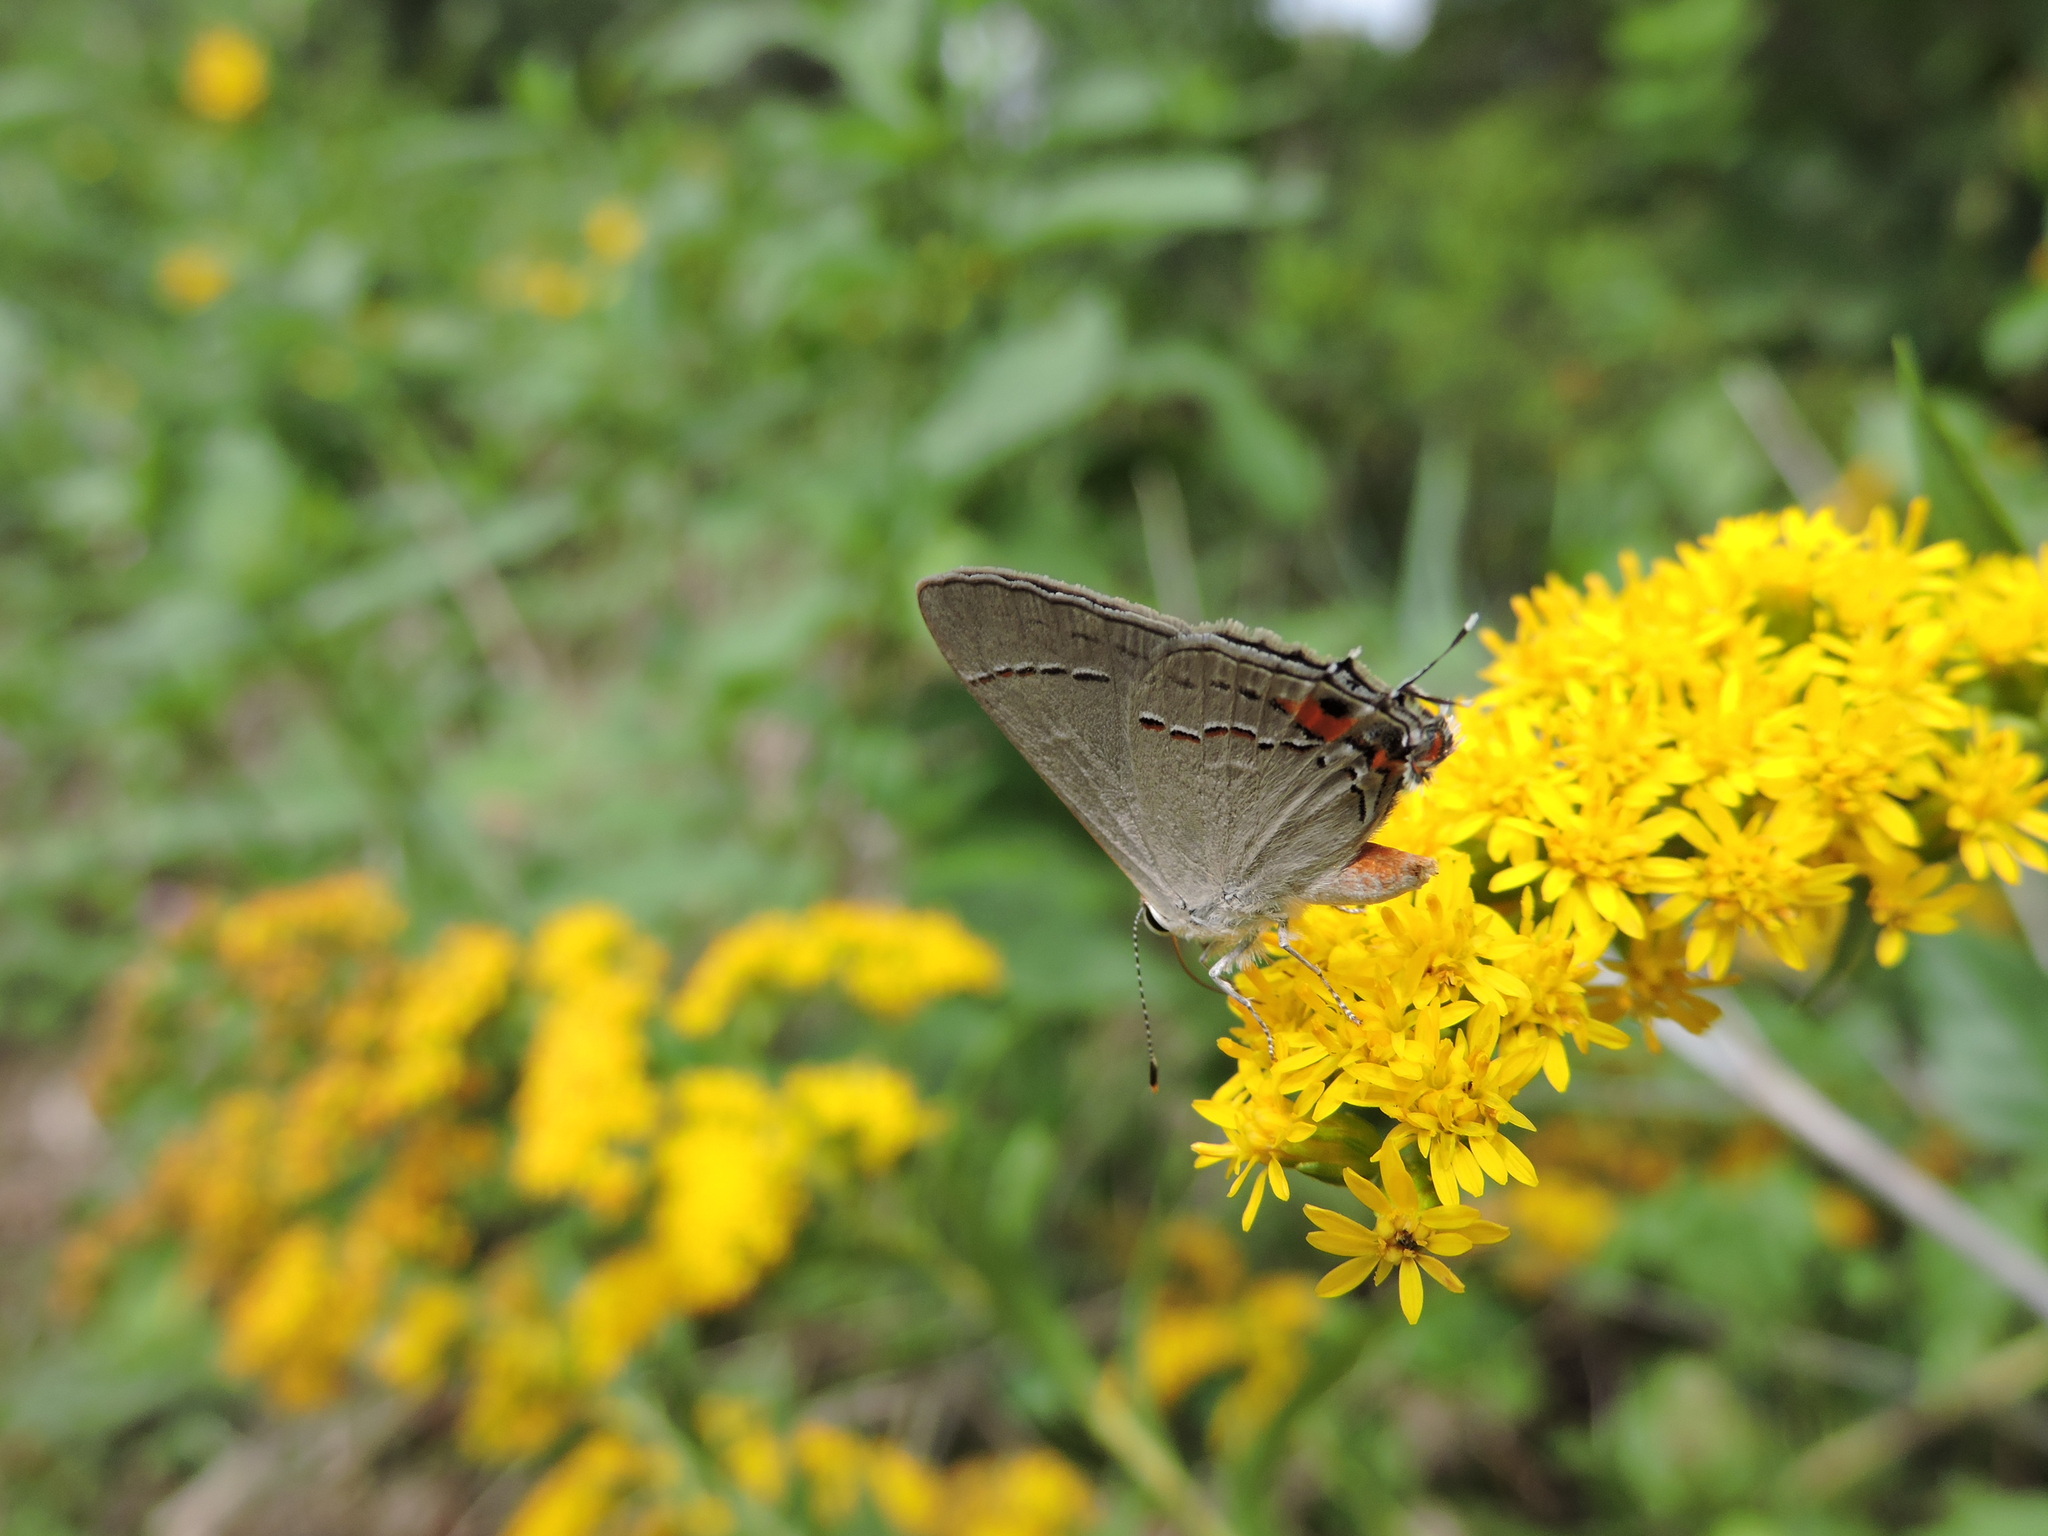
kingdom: Animalia
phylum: Arthropoda
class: Insecta
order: Lepidoptera
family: Lycaenidae
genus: Strymon
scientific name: Strymon melinus
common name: Gray hairstreak
